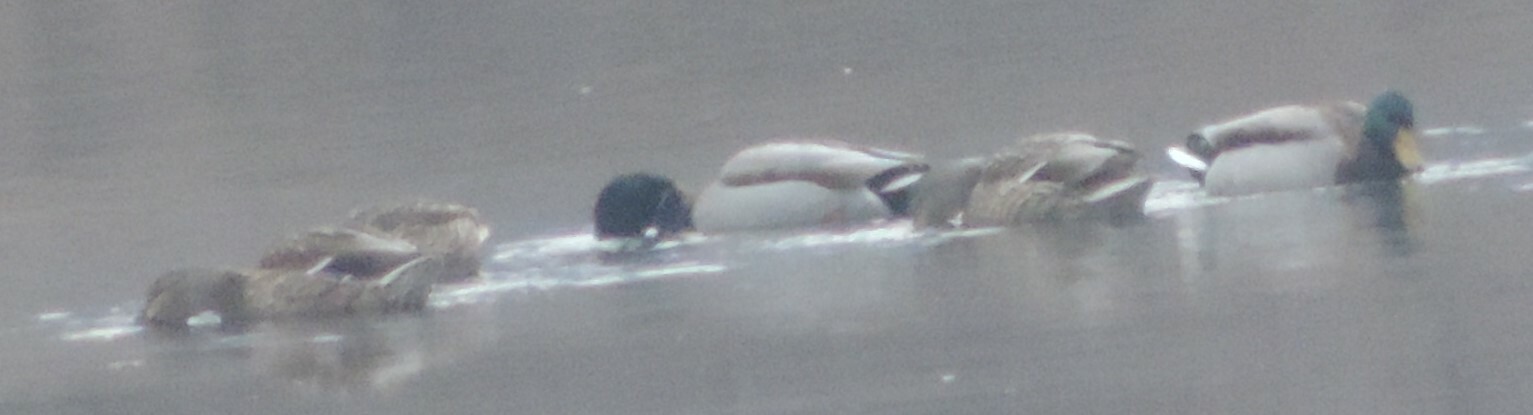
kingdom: Animalia
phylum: Chordata
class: Aves
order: Anseriformes
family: Anatidae
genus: Anas
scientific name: Anas platyrhynchos
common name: Mallard
